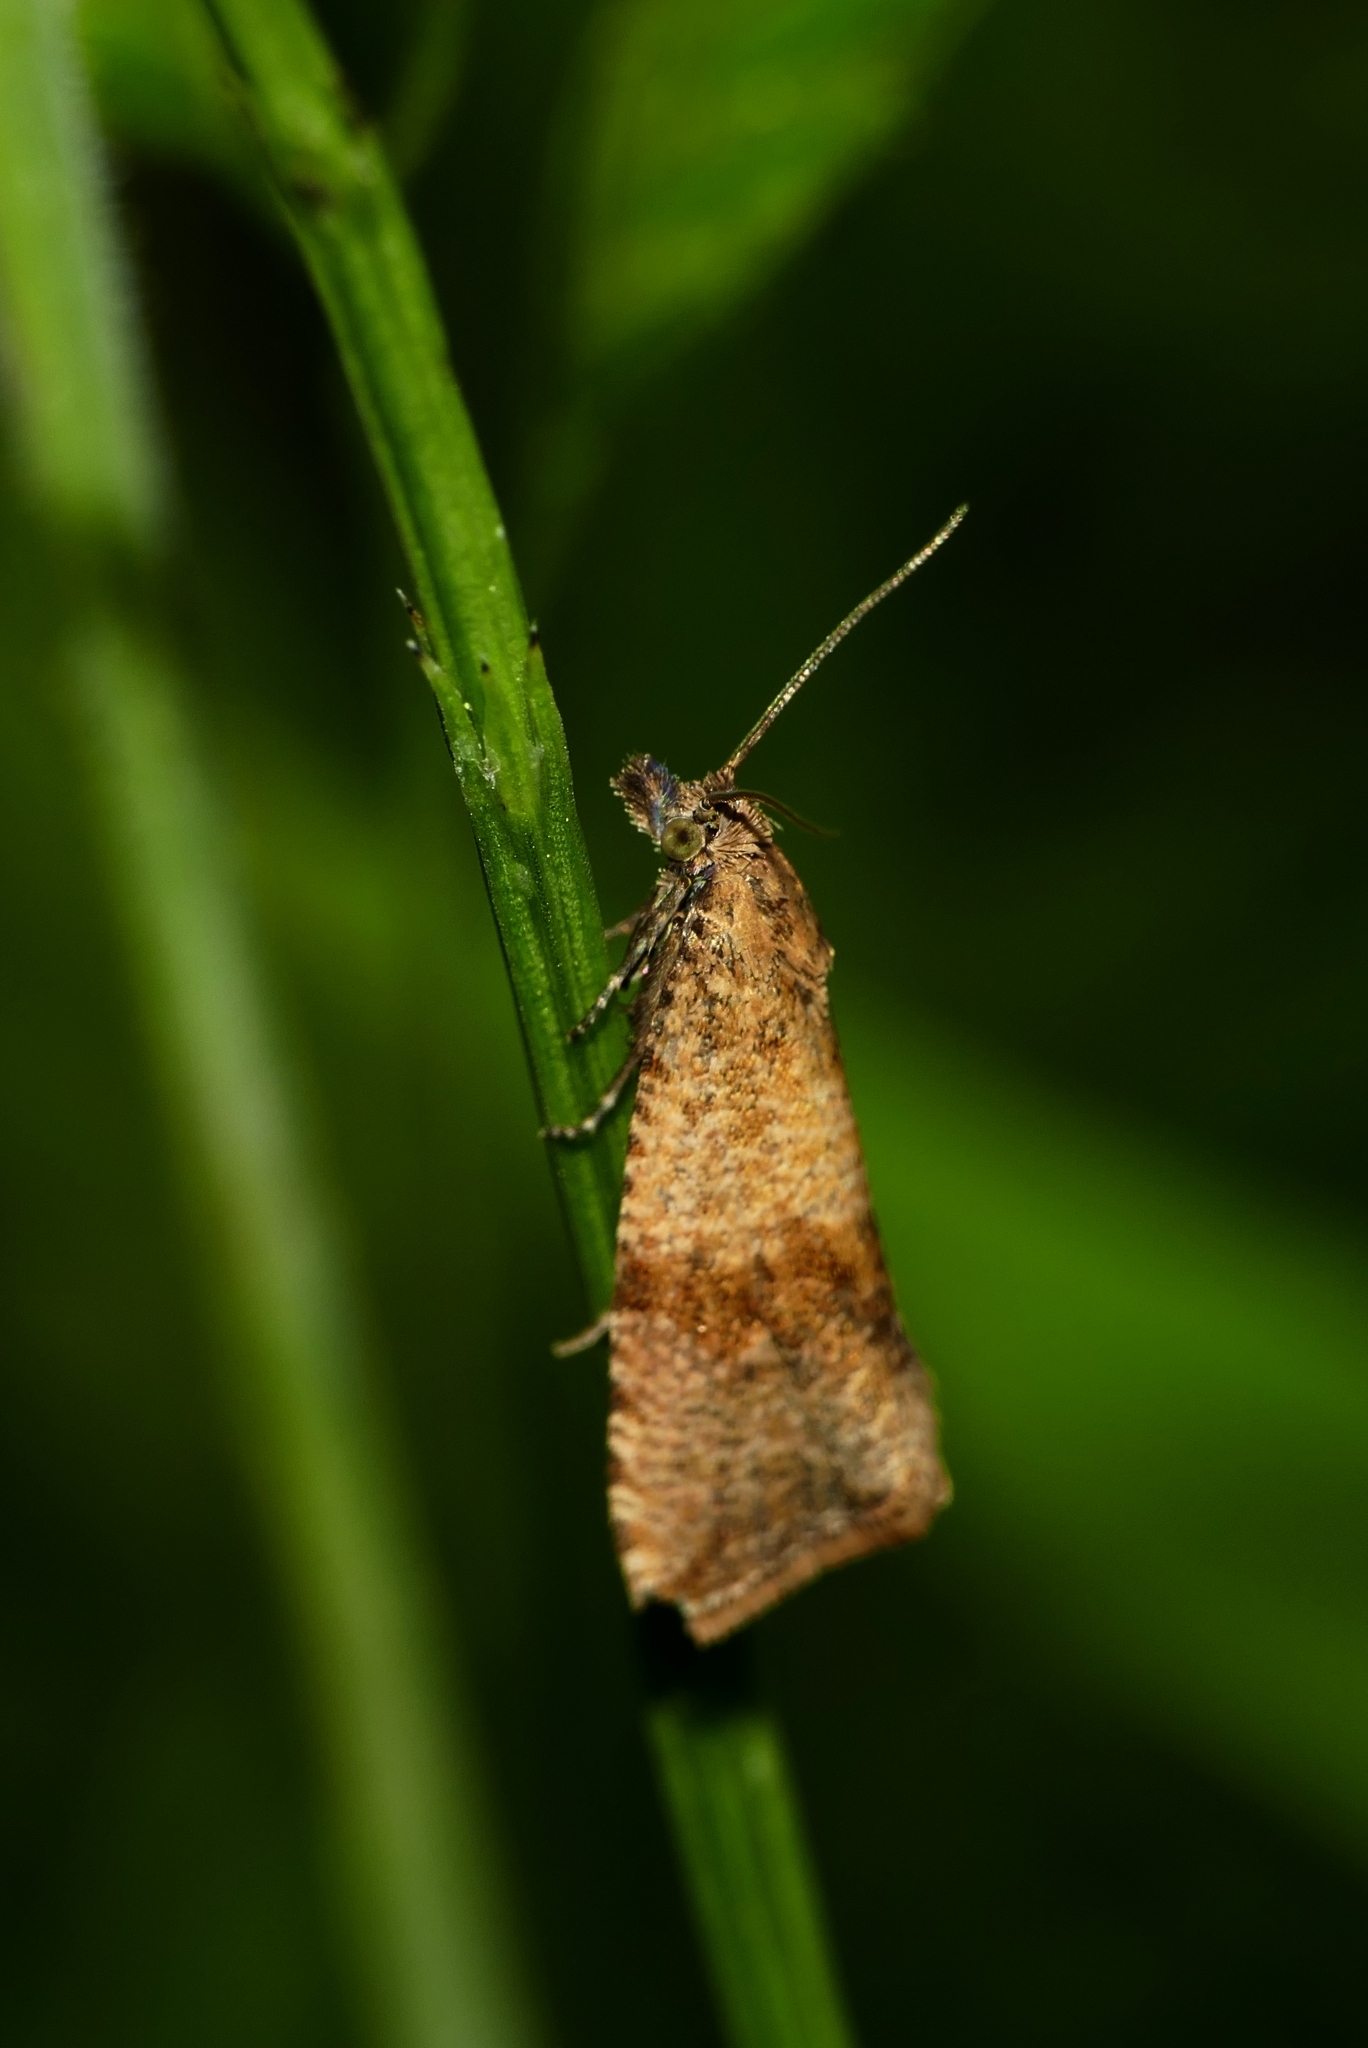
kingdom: Animalia
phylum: Arthropoda
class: Insecta
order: Lepidoptera
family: Tortricidae
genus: Celypha
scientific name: Celypha striana
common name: Barred marble
